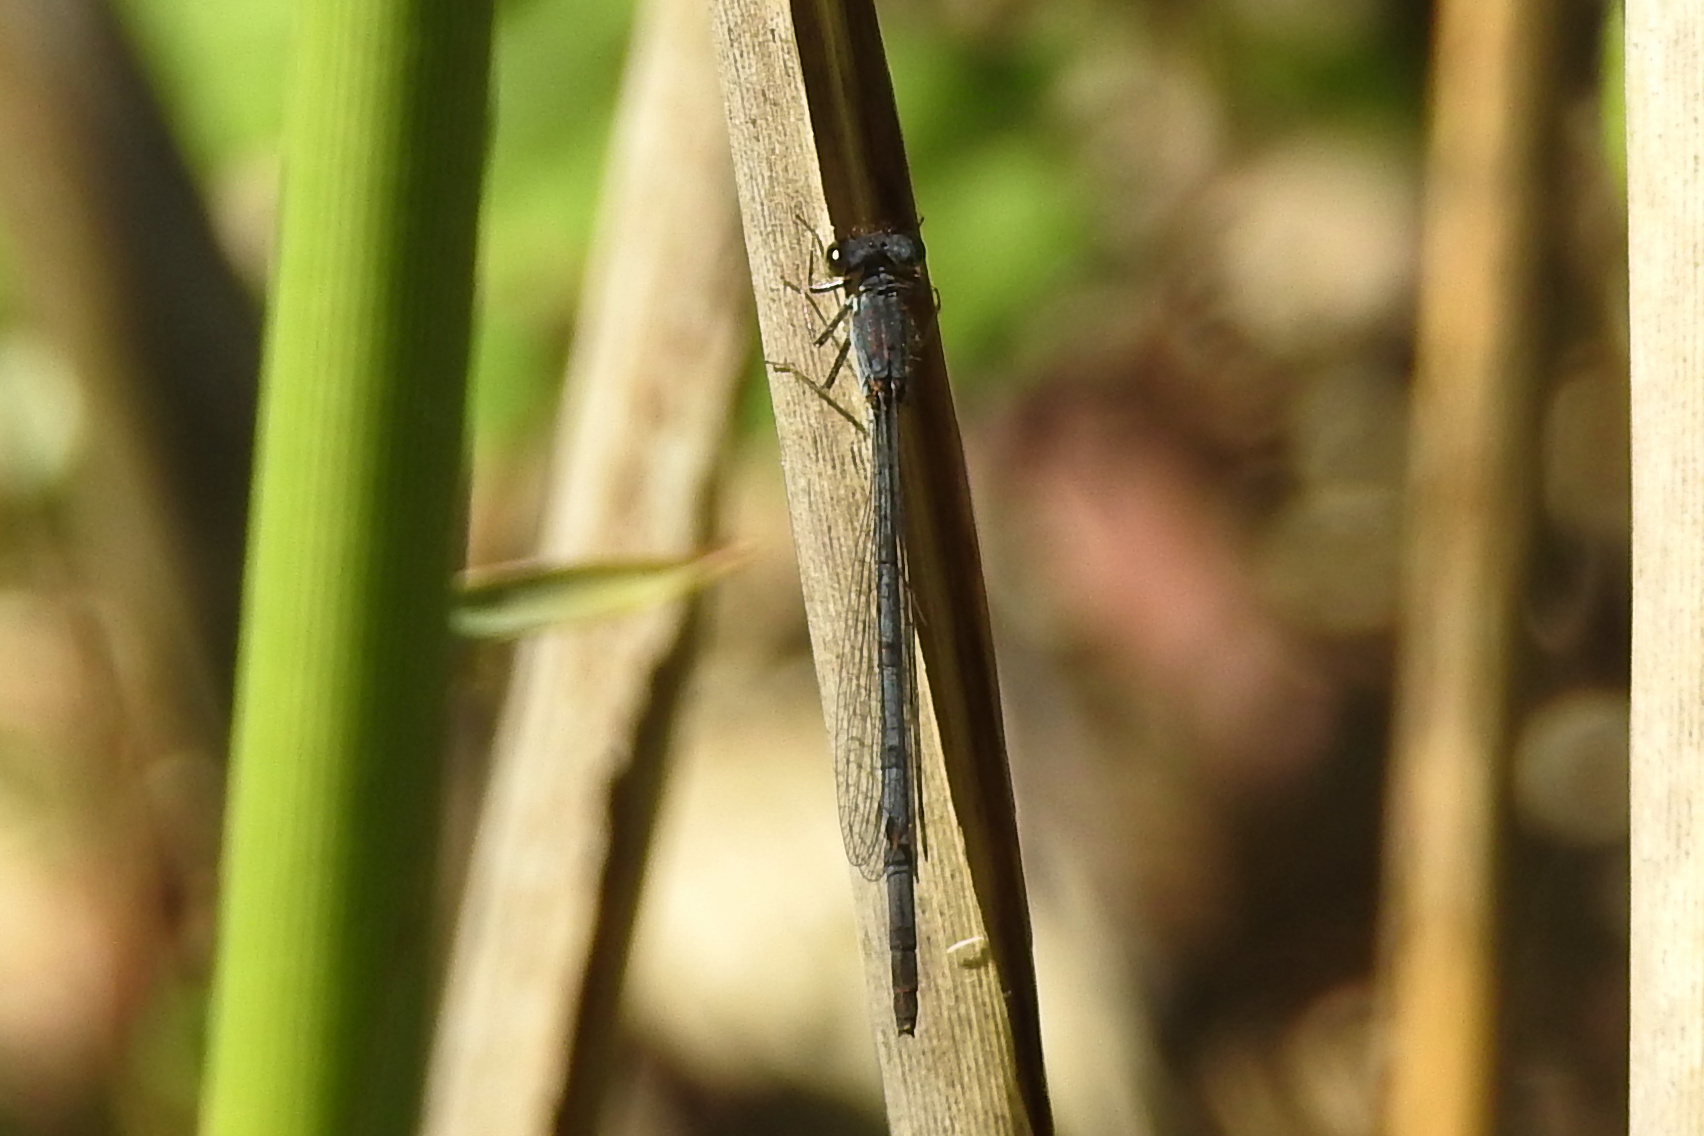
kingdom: Animalia
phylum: Arthropoda
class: Insecta
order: Odonata
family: Coenagrionidae
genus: Ischnura
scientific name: Ischnura posita
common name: Fragile forktail
